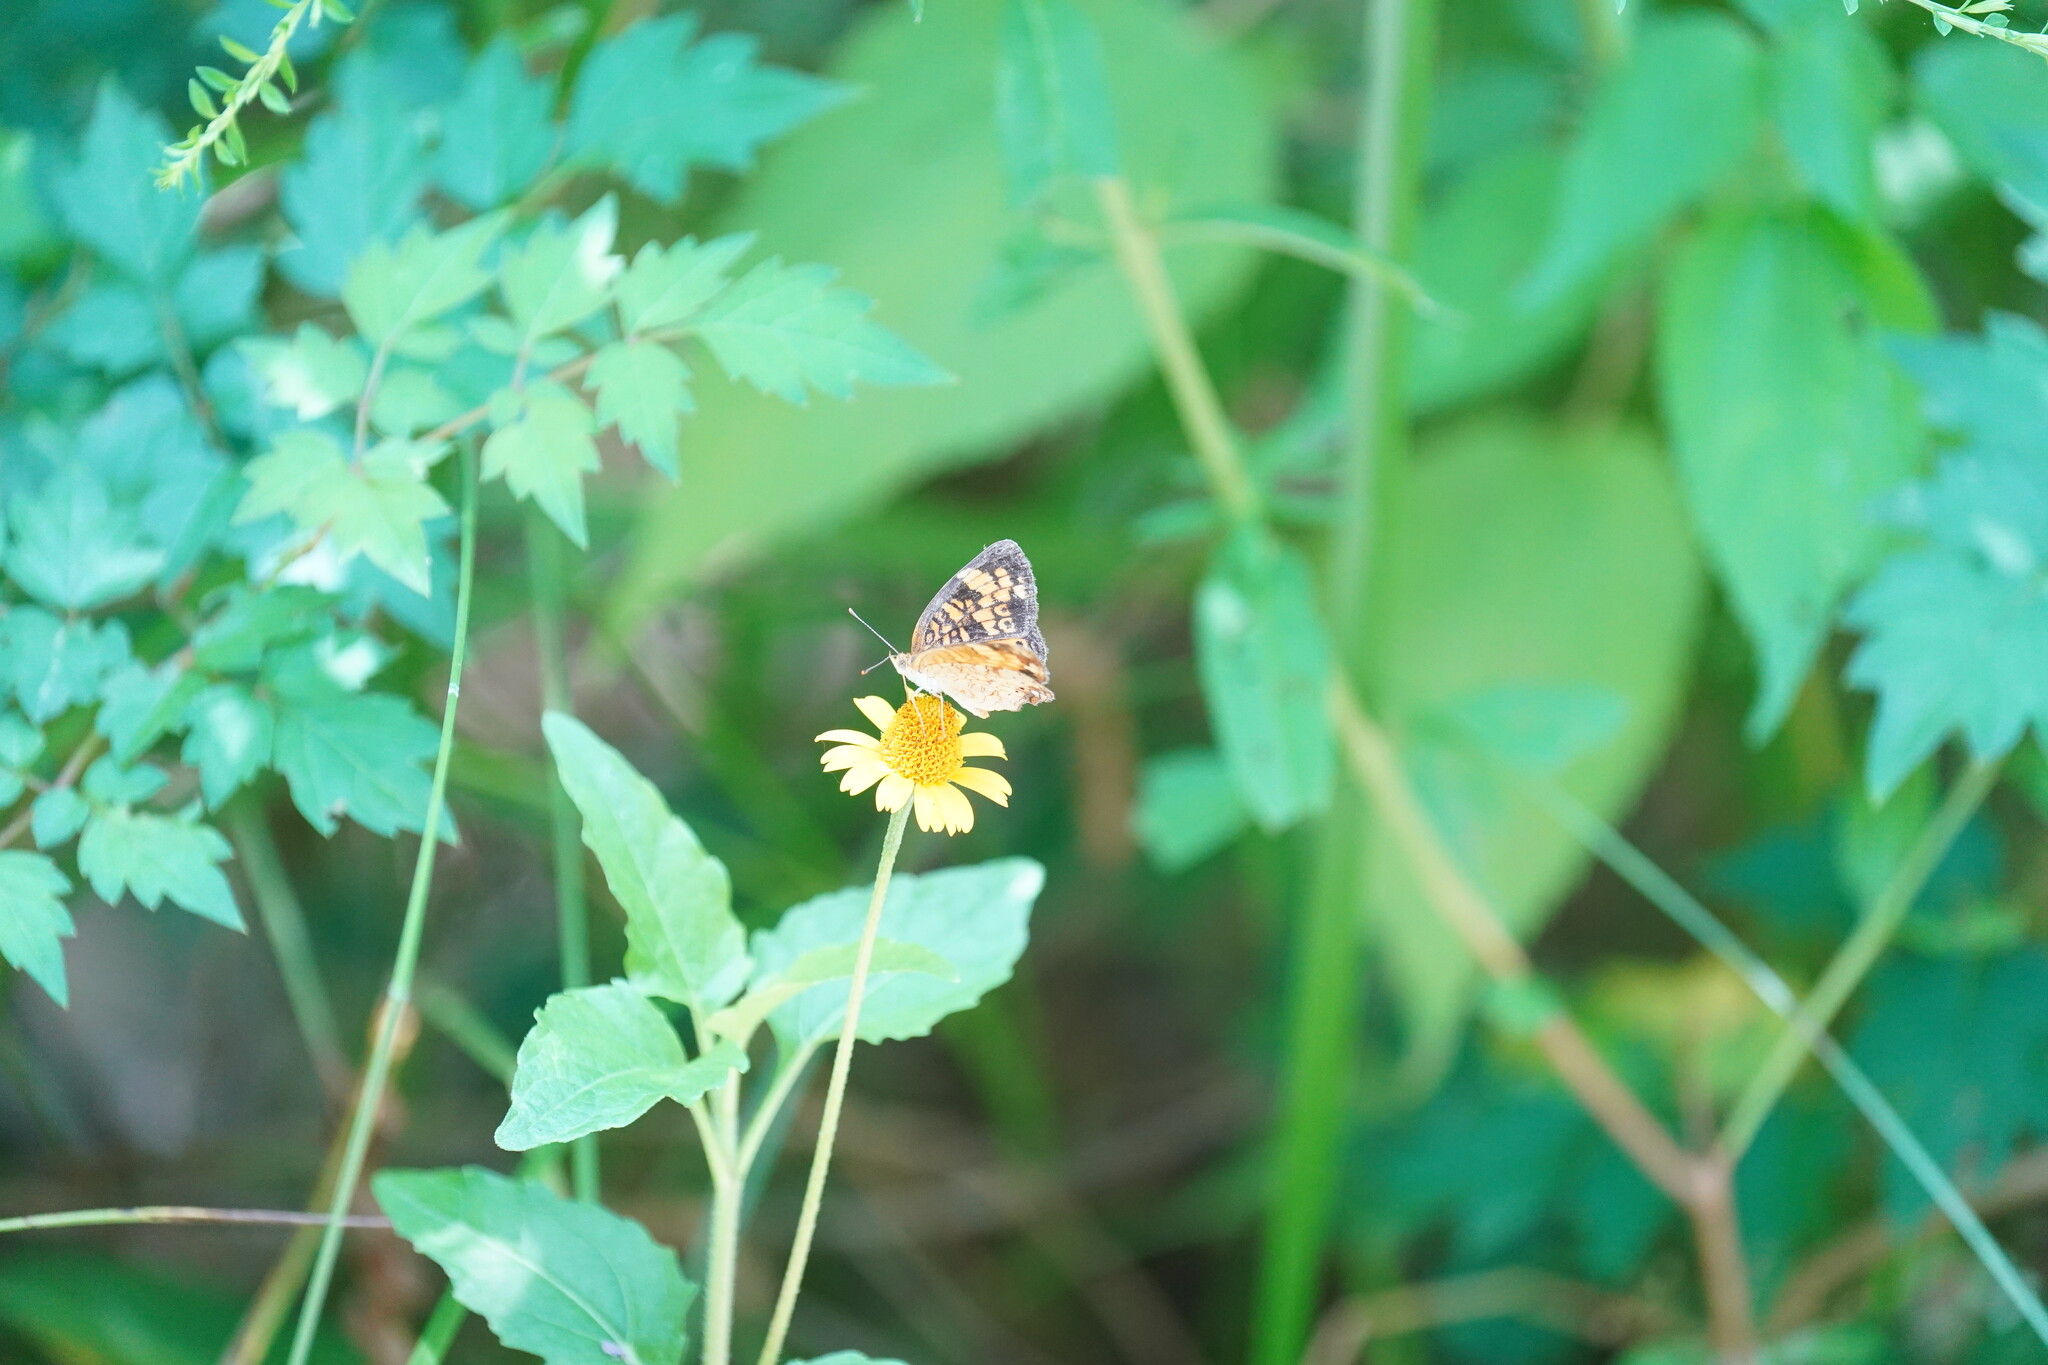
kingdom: Animalia
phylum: Arthropoda
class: Insecta
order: Lepidoptera
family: Nymphalidae
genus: Phyciodes
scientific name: Phyciodes tharos
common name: Pearl crescent
